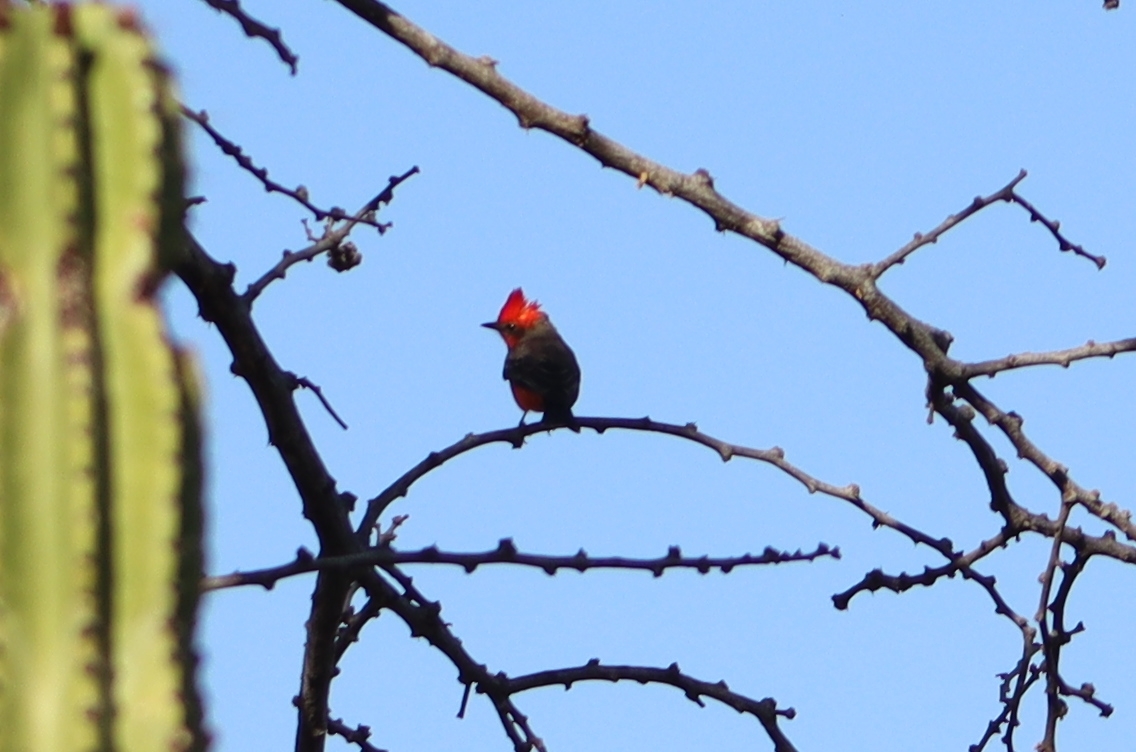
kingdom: Animalia
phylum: Chordata
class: Aves
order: Passeriformes
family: Tyrannidae
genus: Pyrocephalus
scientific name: Pyrocephalus rubinus
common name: Vermilion flycatcher
